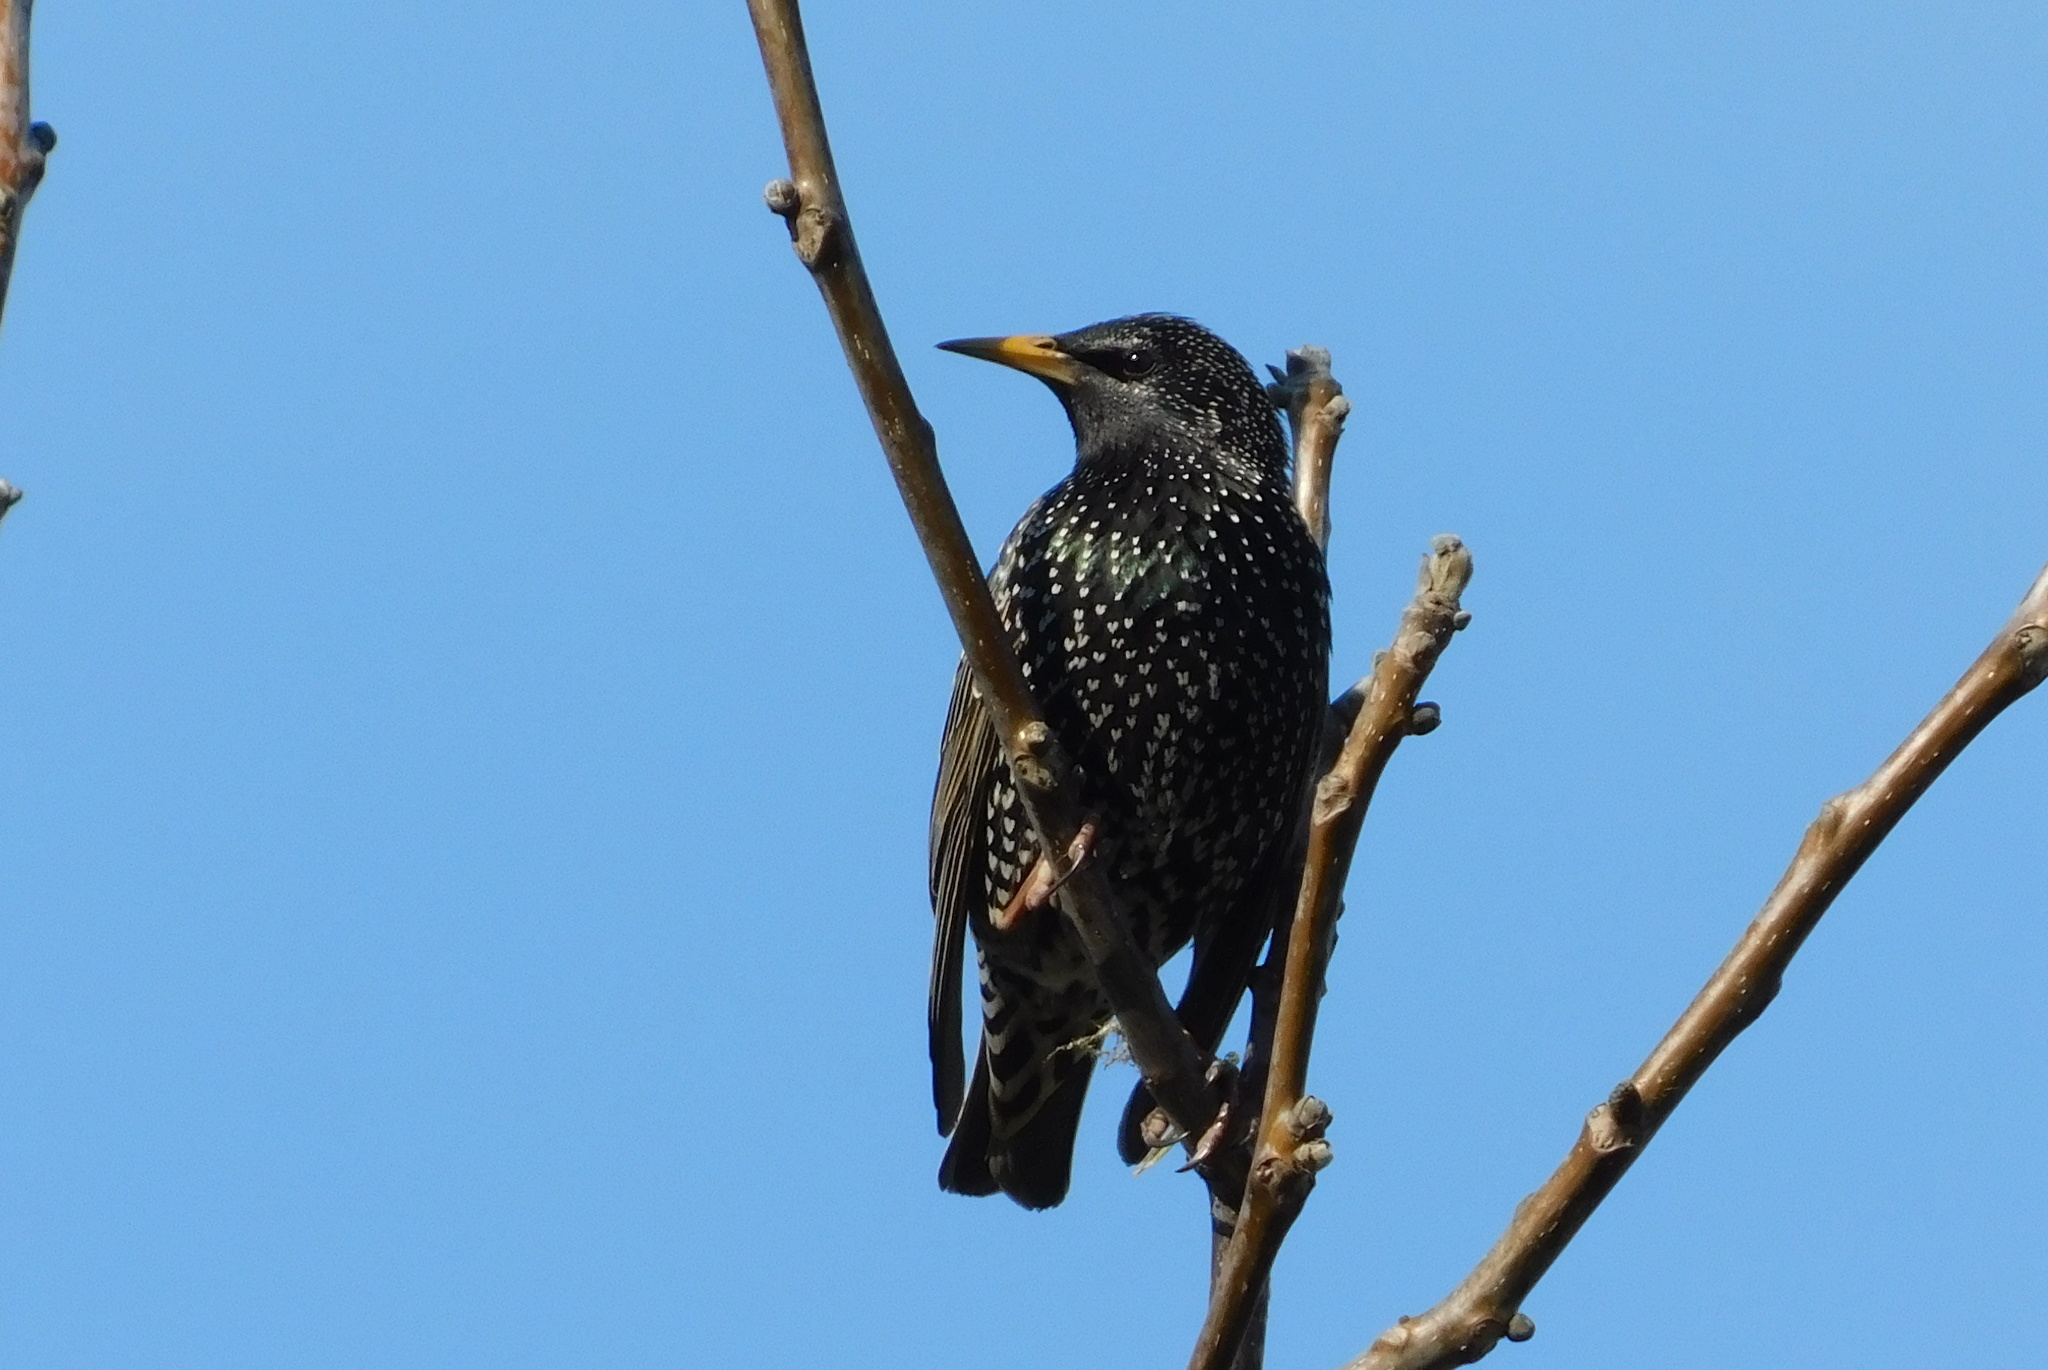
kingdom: Animalia
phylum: Chordata
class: Aves
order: Passeriformes
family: Sturnidae
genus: Sturnus
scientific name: Sturnus vulgaris
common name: Common starling
